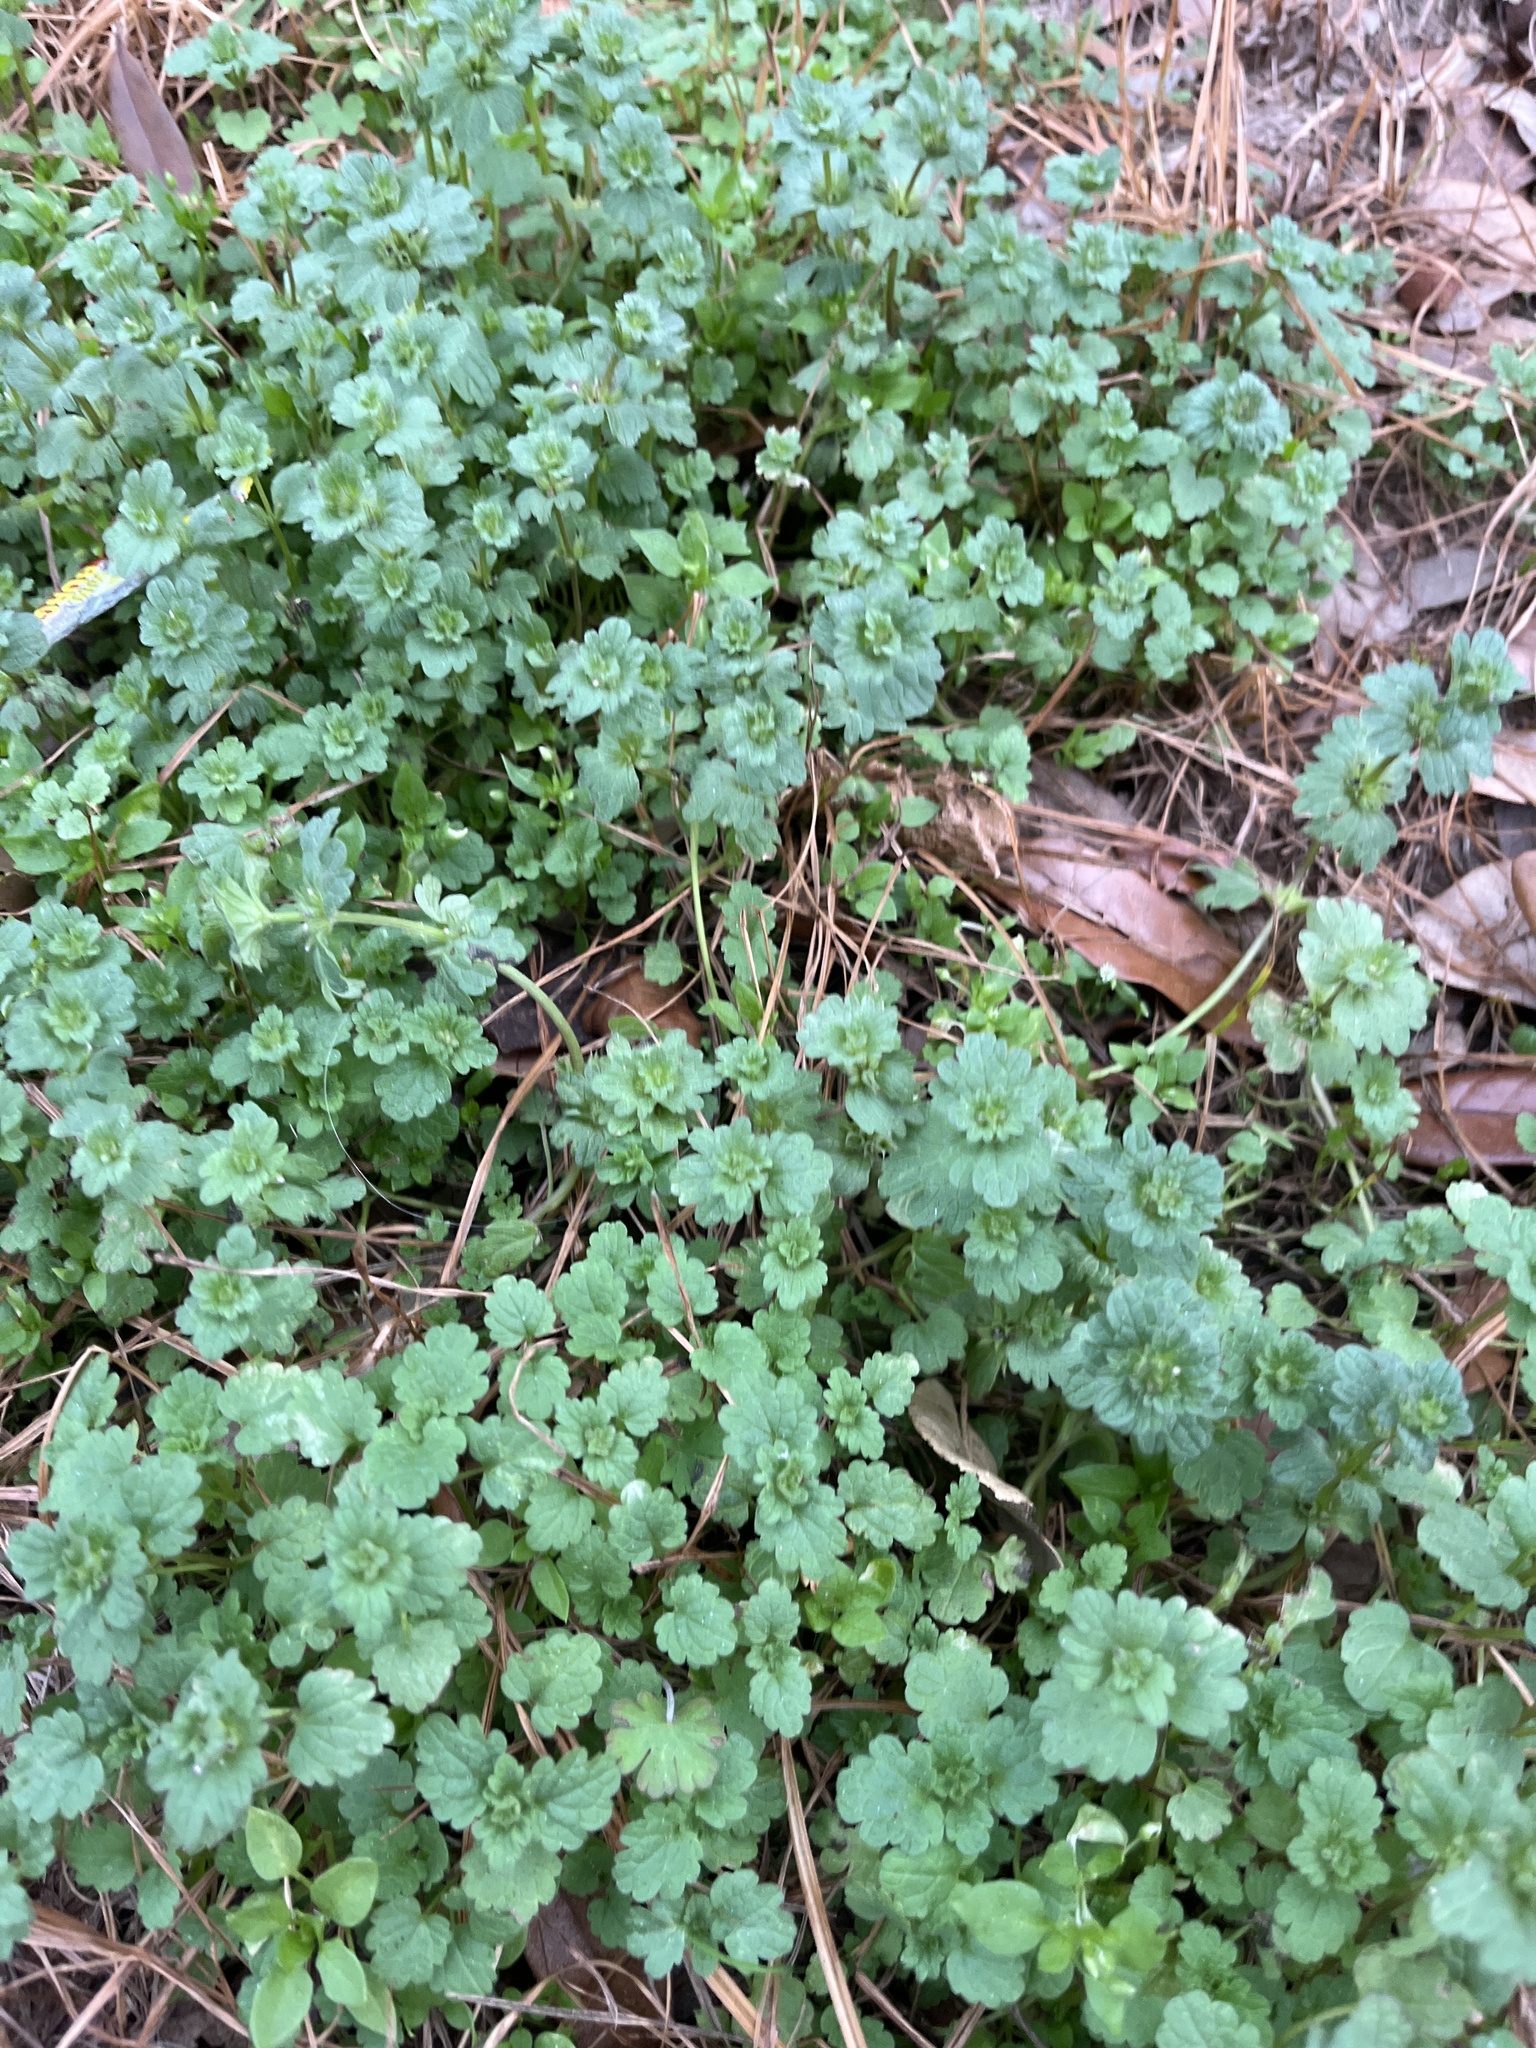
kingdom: Plantae
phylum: Tracheophyta
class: Magnoliopsida
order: Lamiales
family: Lamiaceae
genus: Lamium
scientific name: Lamium amplexicaule
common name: Henbit dead-nettle
